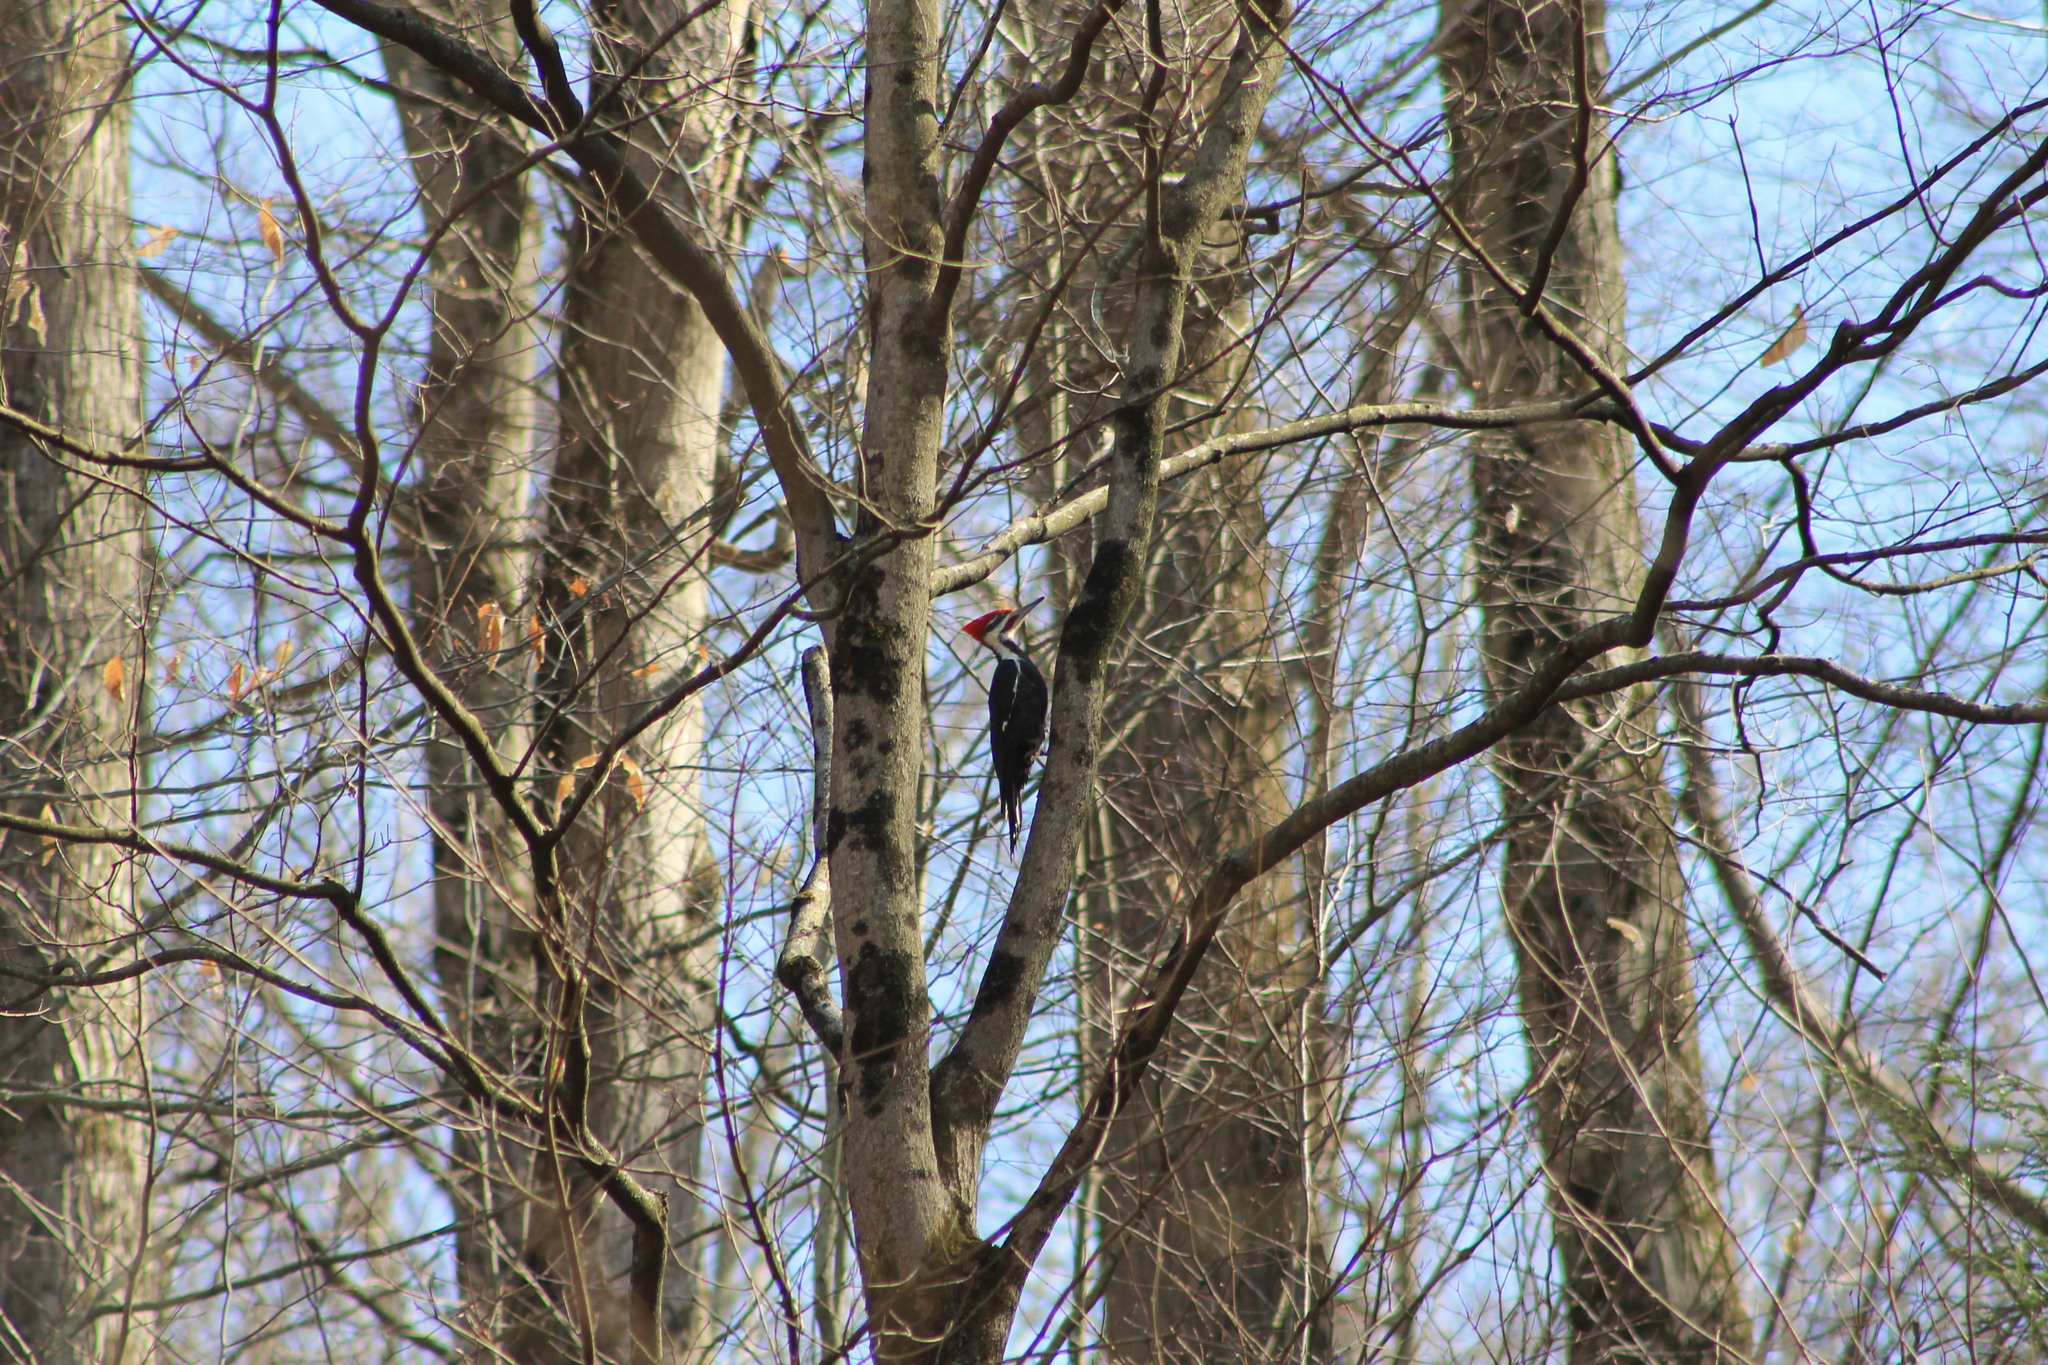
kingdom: Animalia
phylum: Chordata
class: Aves
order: Piciformes
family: Picidae
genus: Dryocopus
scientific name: Dryocopus pileatus
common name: Pileated woodpecker
